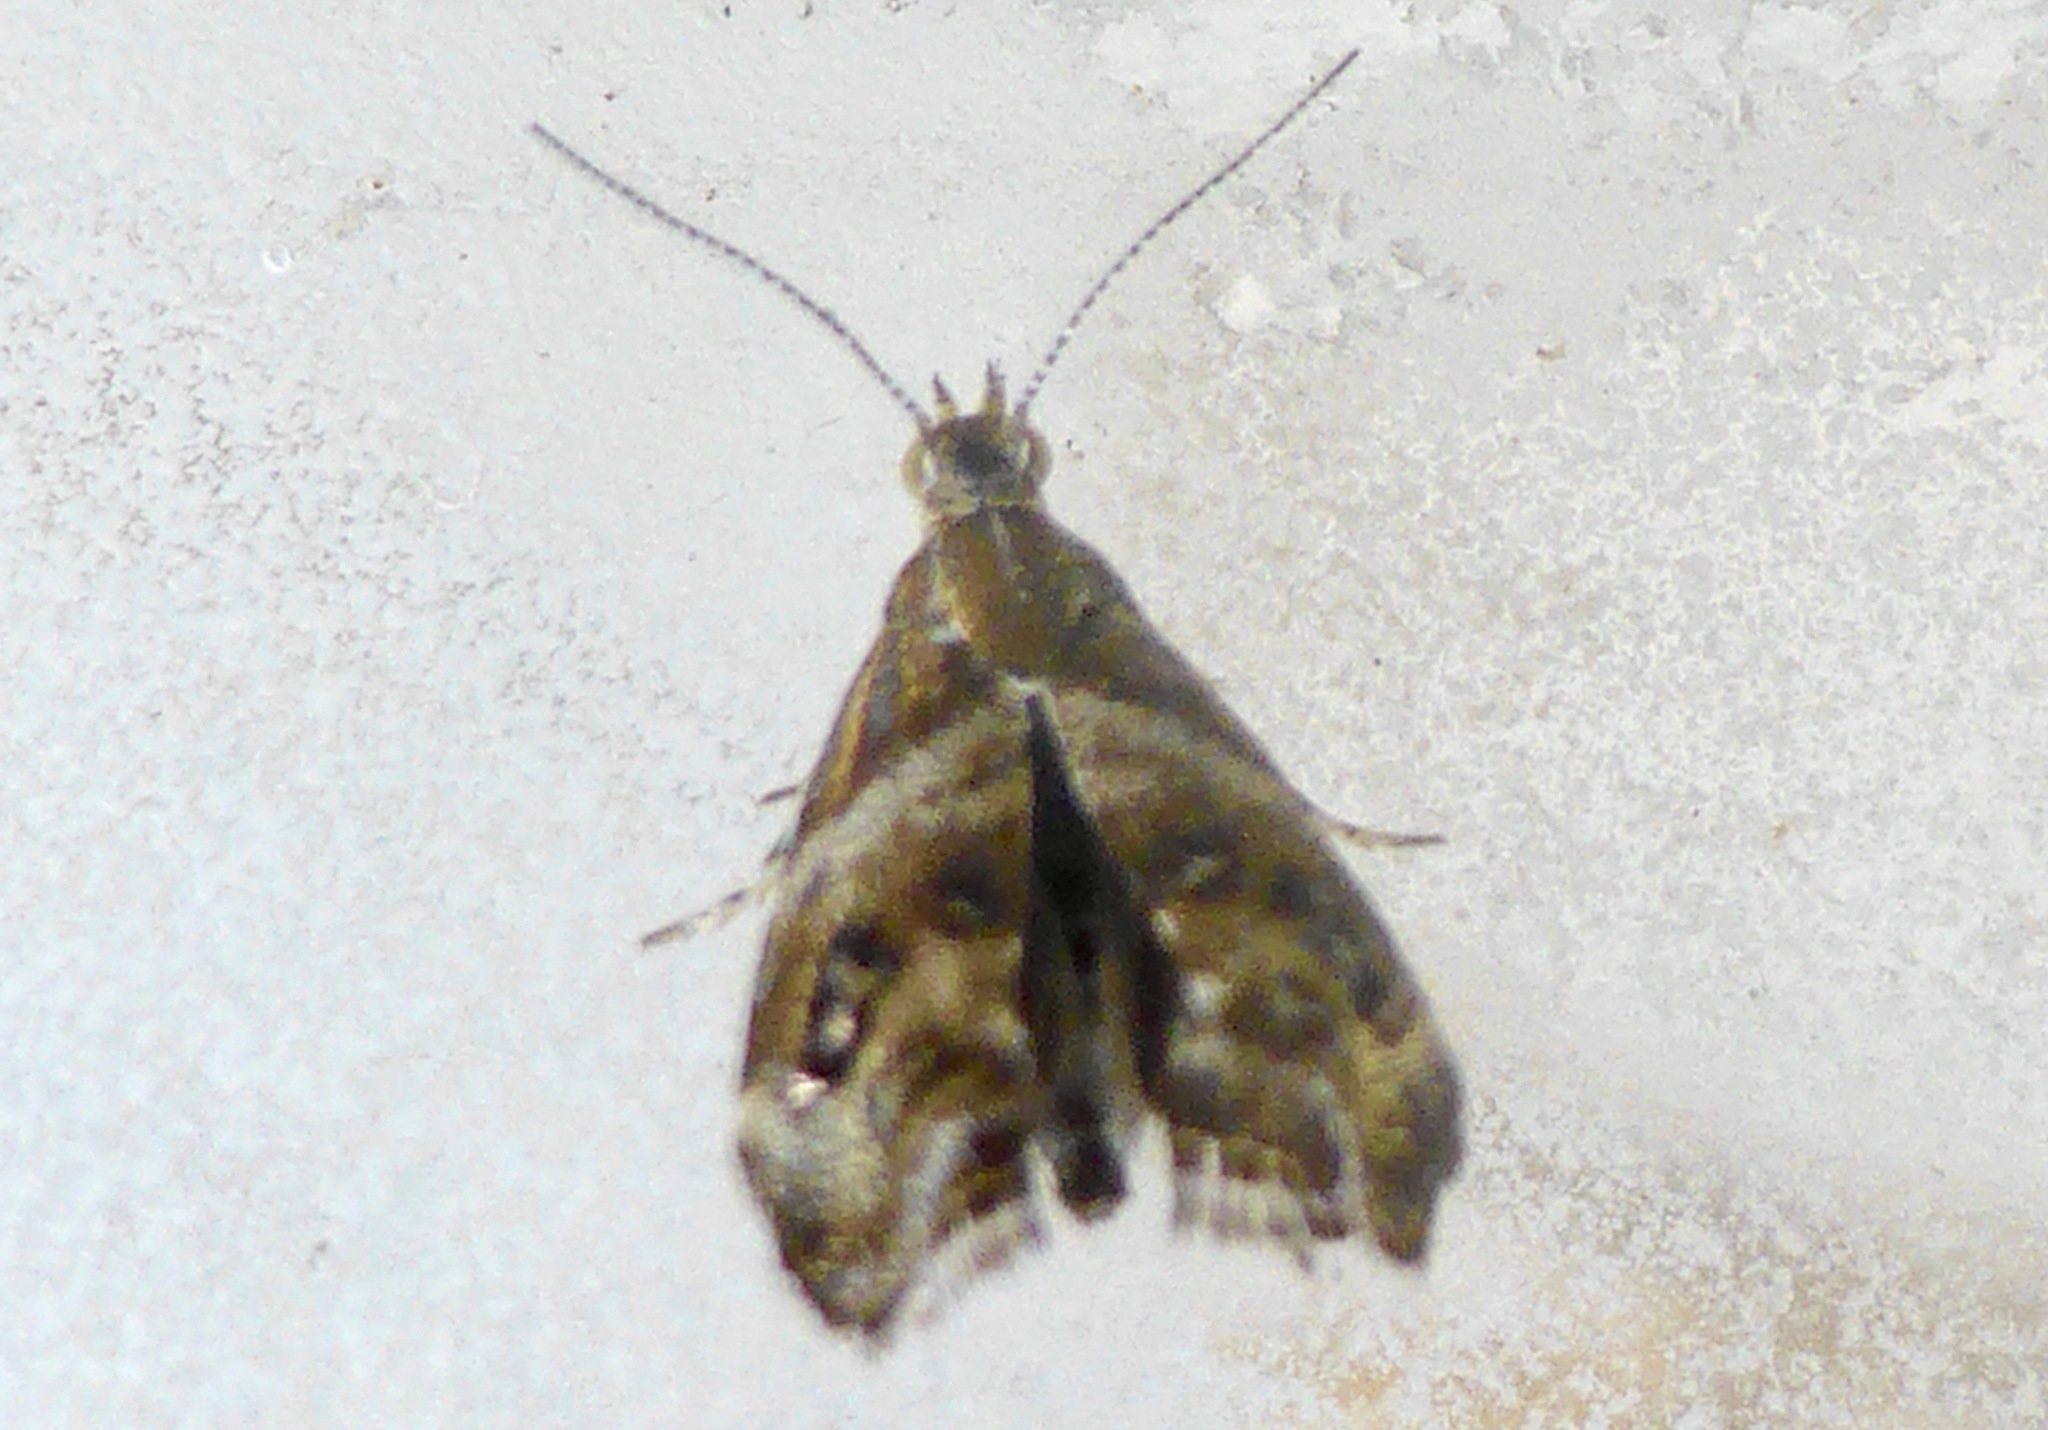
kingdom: Animalia
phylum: Arthropoda
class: Insecta
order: Lepidoptera
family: Choreutidae
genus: Tebenna
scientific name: Tebenna micalis
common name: Vagrant twitcher
